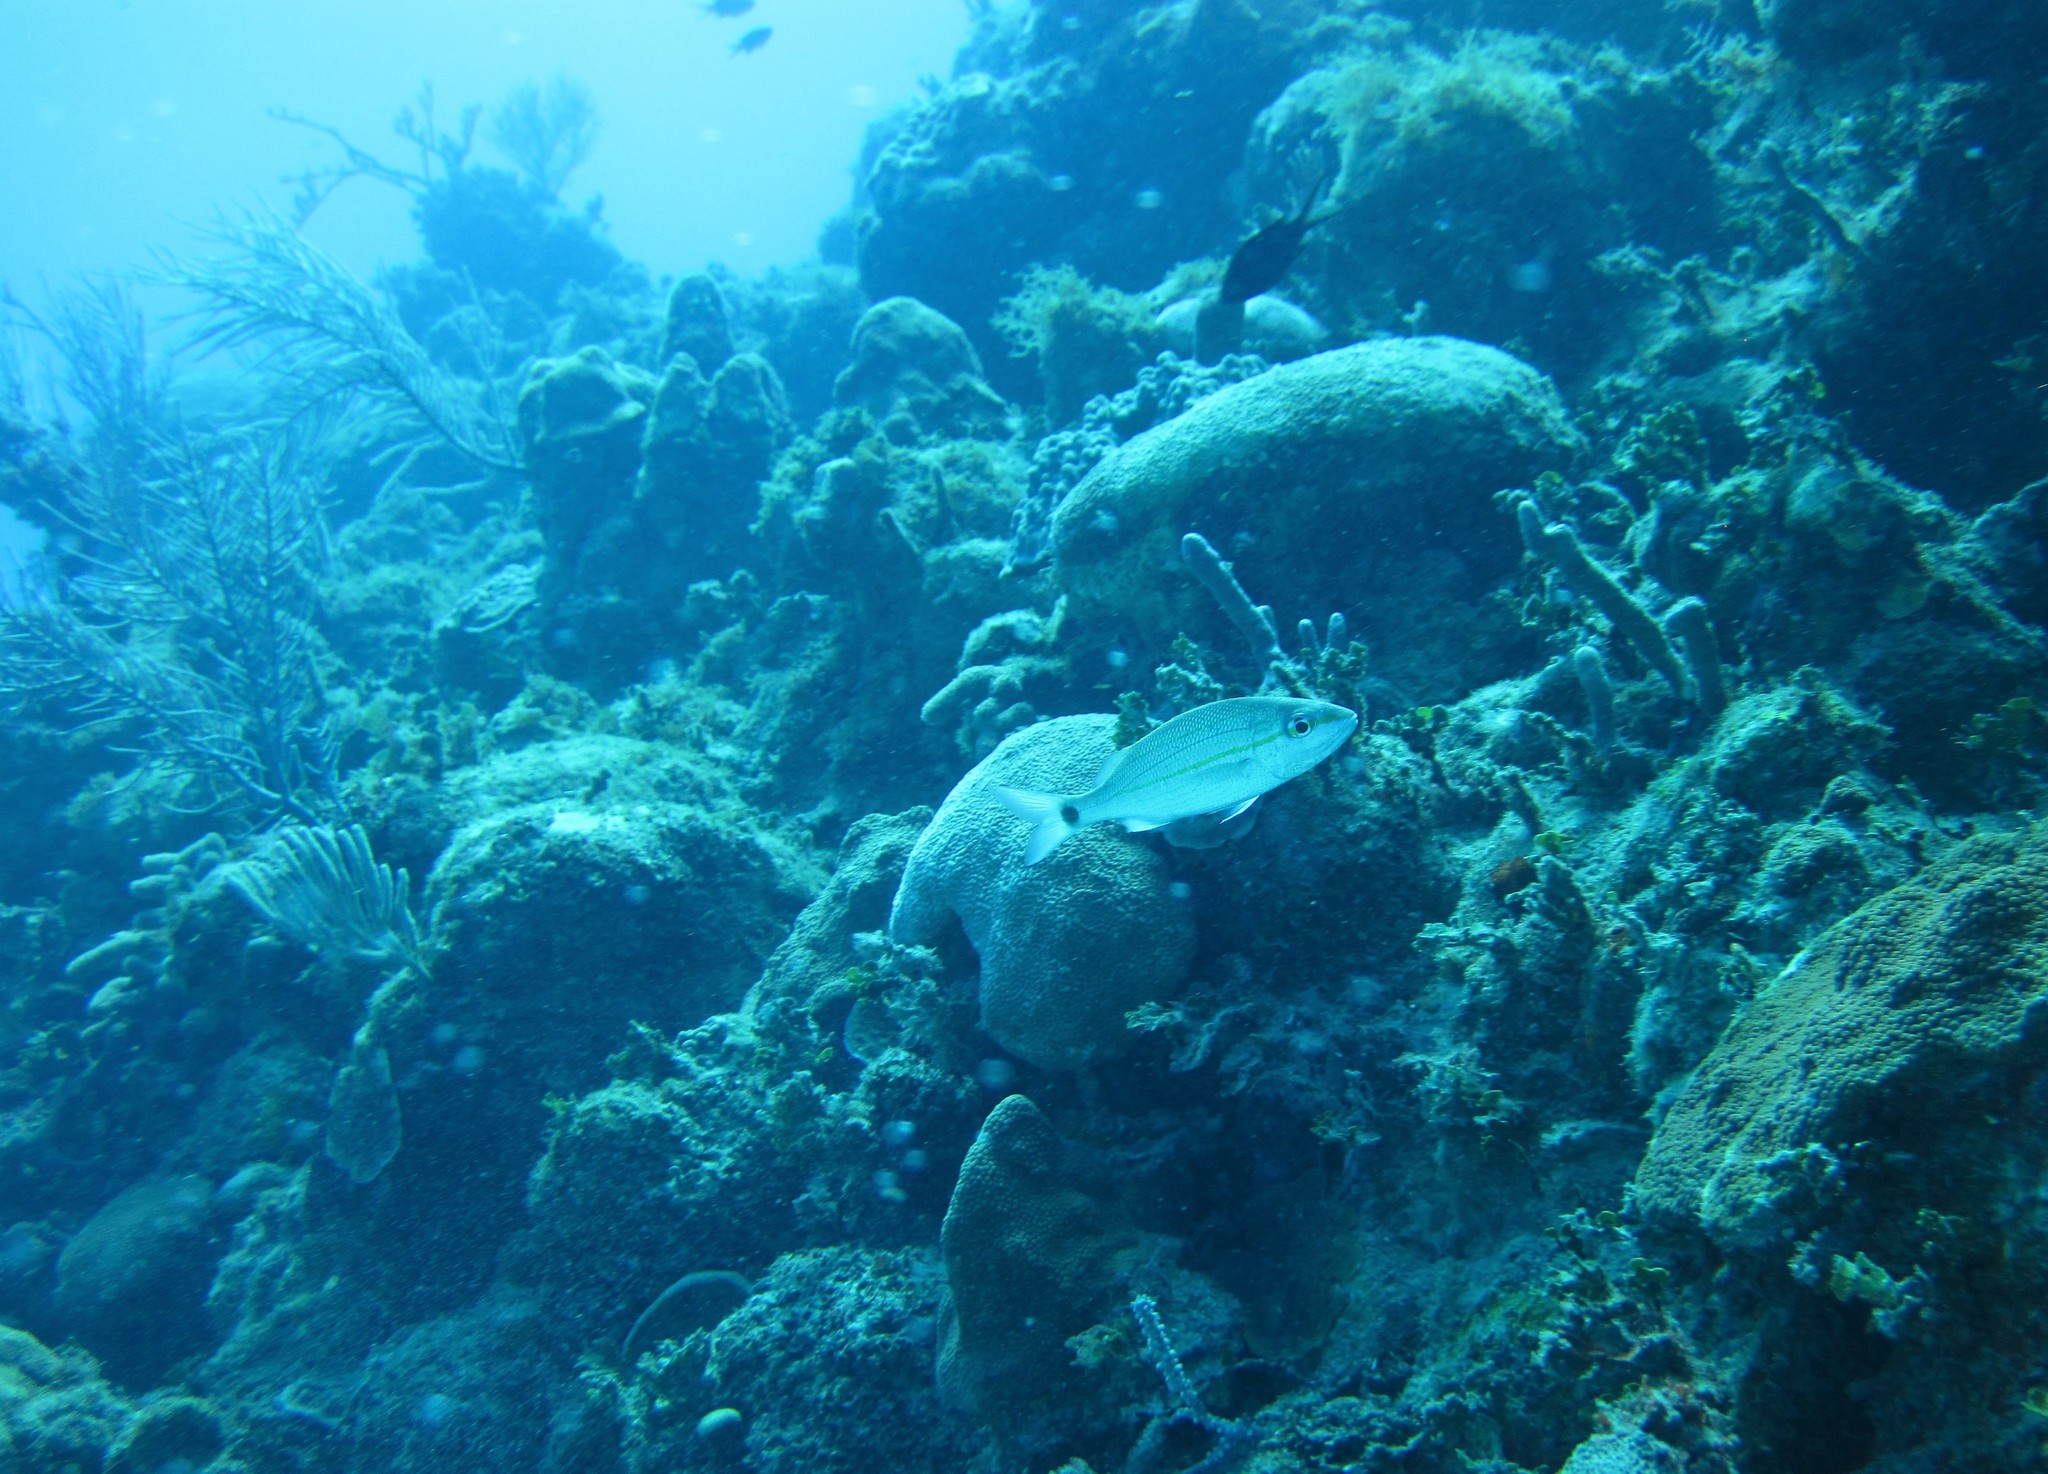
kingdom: Animalia
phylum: Chordata
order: Perciformes
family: Haemulidae
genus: Haemulon
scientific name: Haemulon aurolineatum
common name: Tomtate
